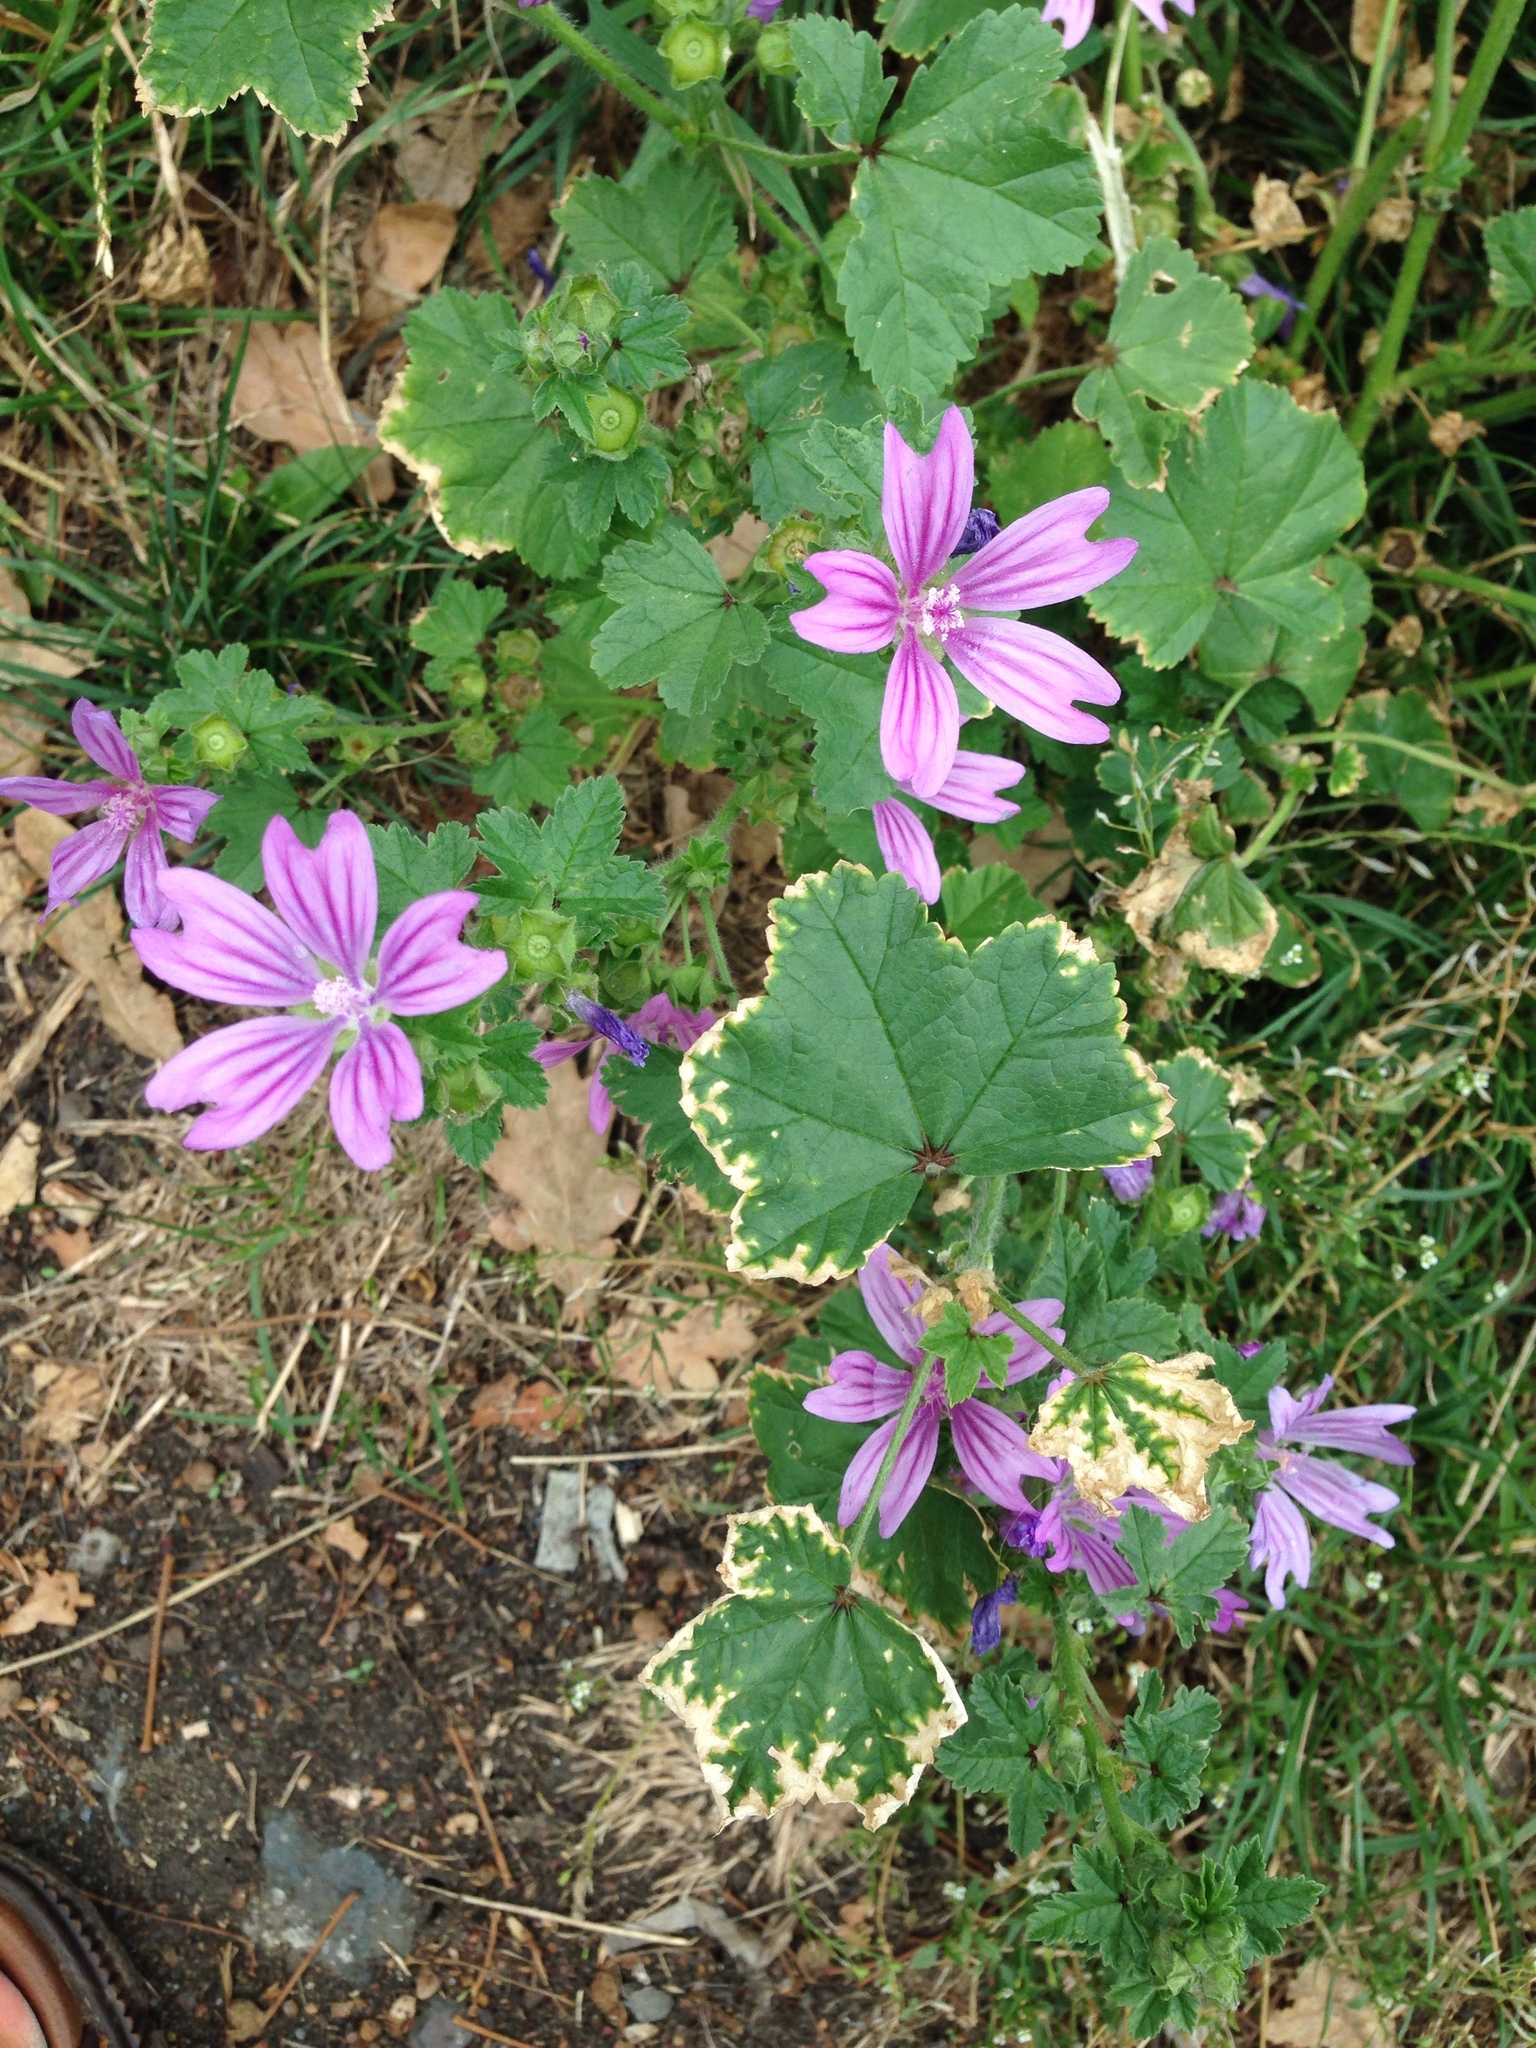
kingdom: Plantae
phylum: Tracheophyta
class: Magnoliopsida
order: Malvales
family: Malvaceae
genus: Malva
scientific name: Malva sylvestris
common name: Common mallow
